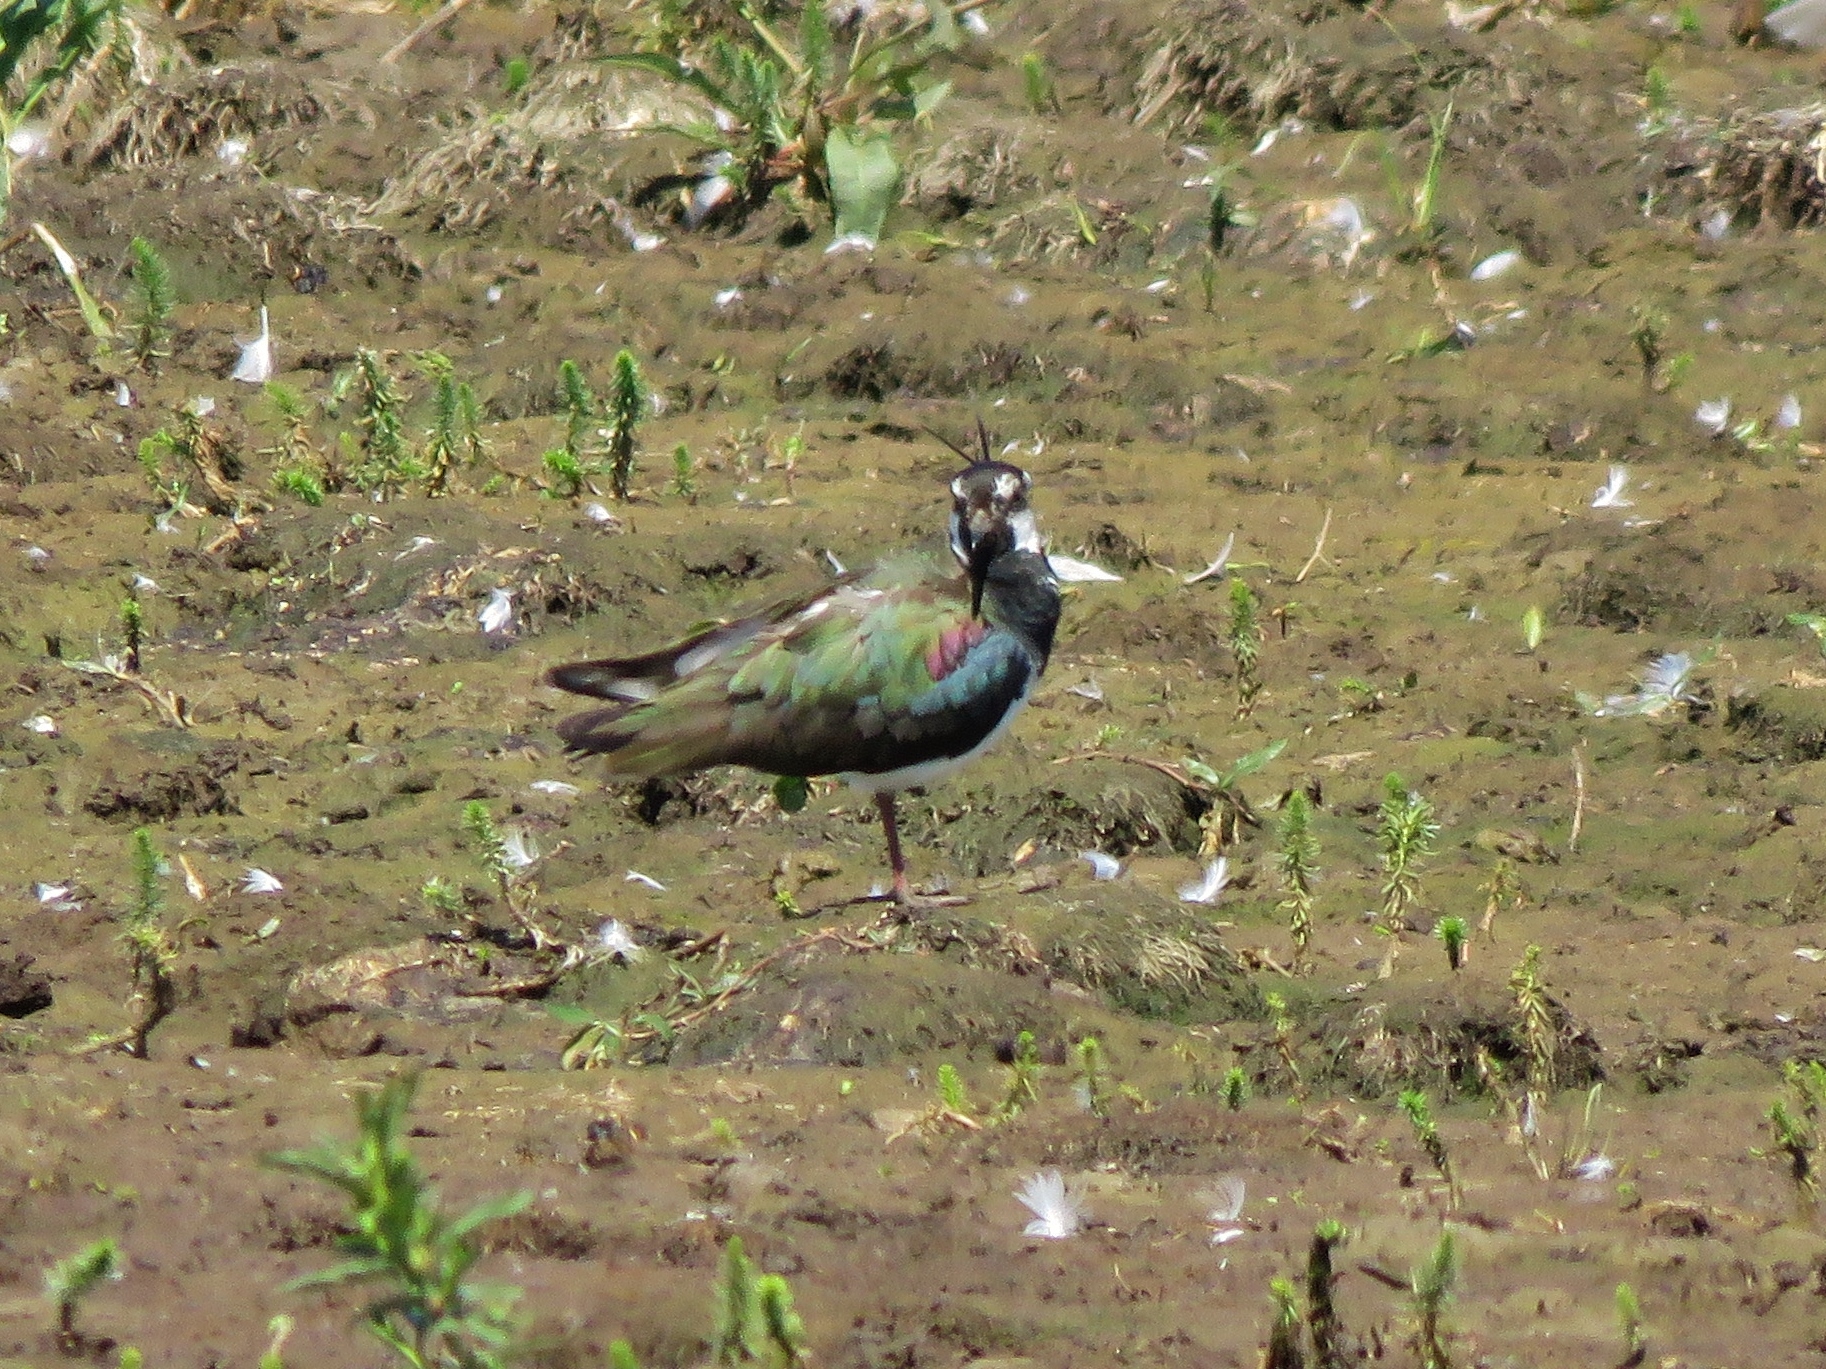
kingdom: Animalia
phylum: Chordata
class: Aves
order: Charadriiformes
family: Charadriidae
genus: Vanellus
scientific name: Vanellus vanellus
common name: Northern lapwing
